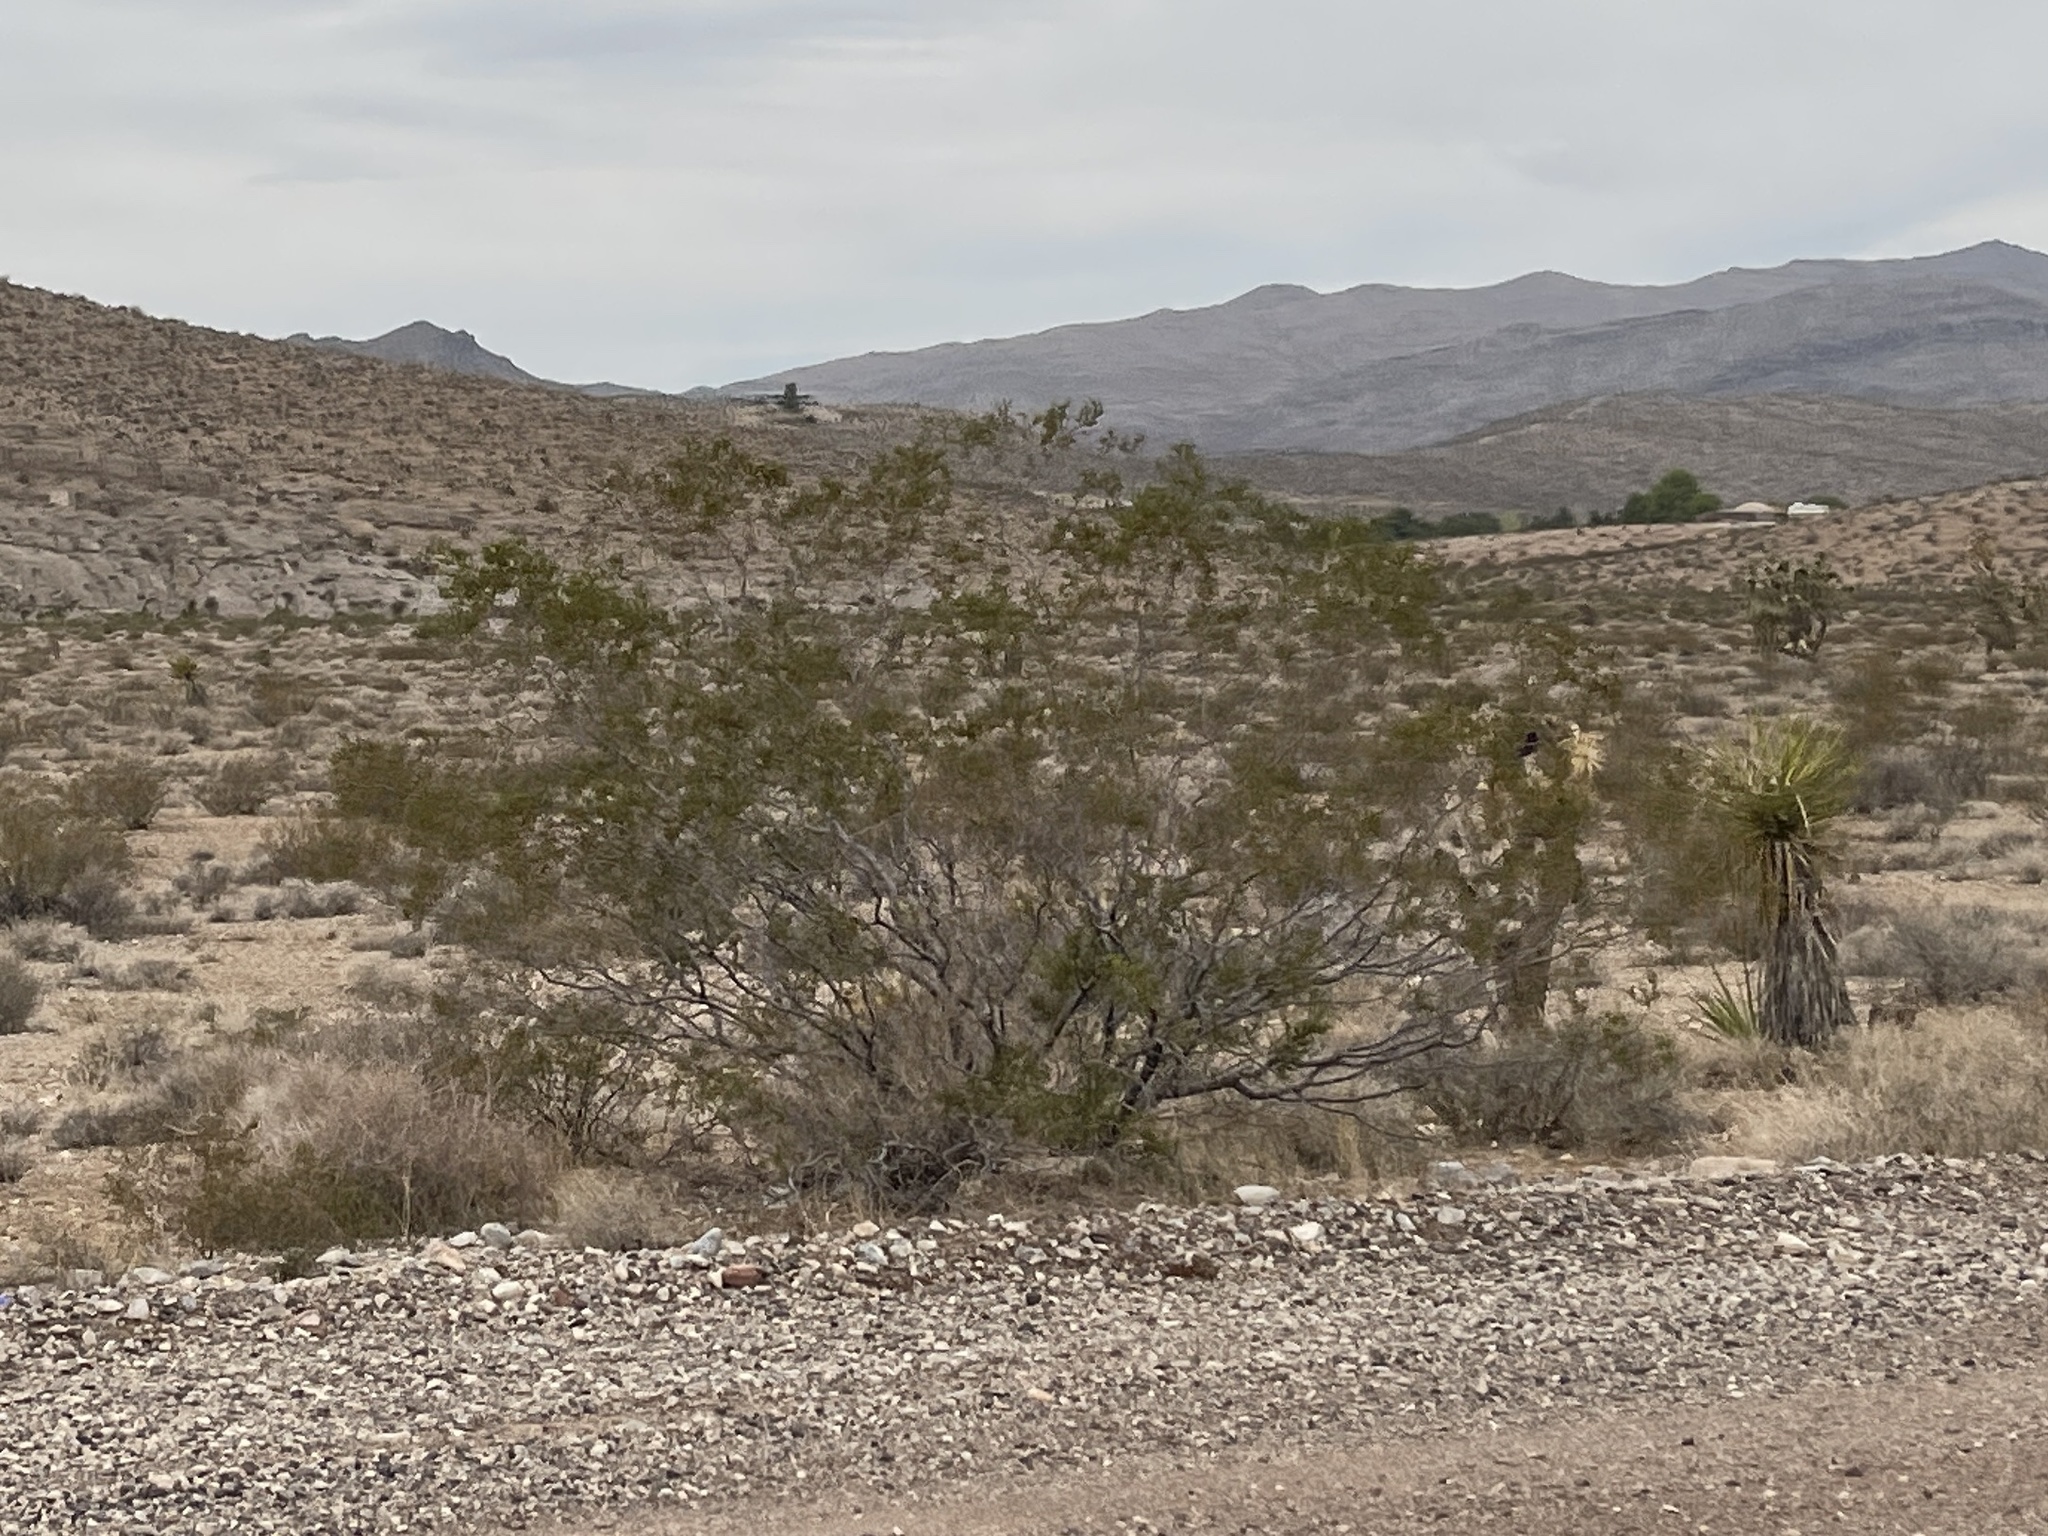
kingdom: Plantae
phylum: Tracheophyta
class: Magnoliopsida
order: Zygophyllales
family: Zygophyllaceae
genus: Larrea
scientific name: Larrea tridentata
